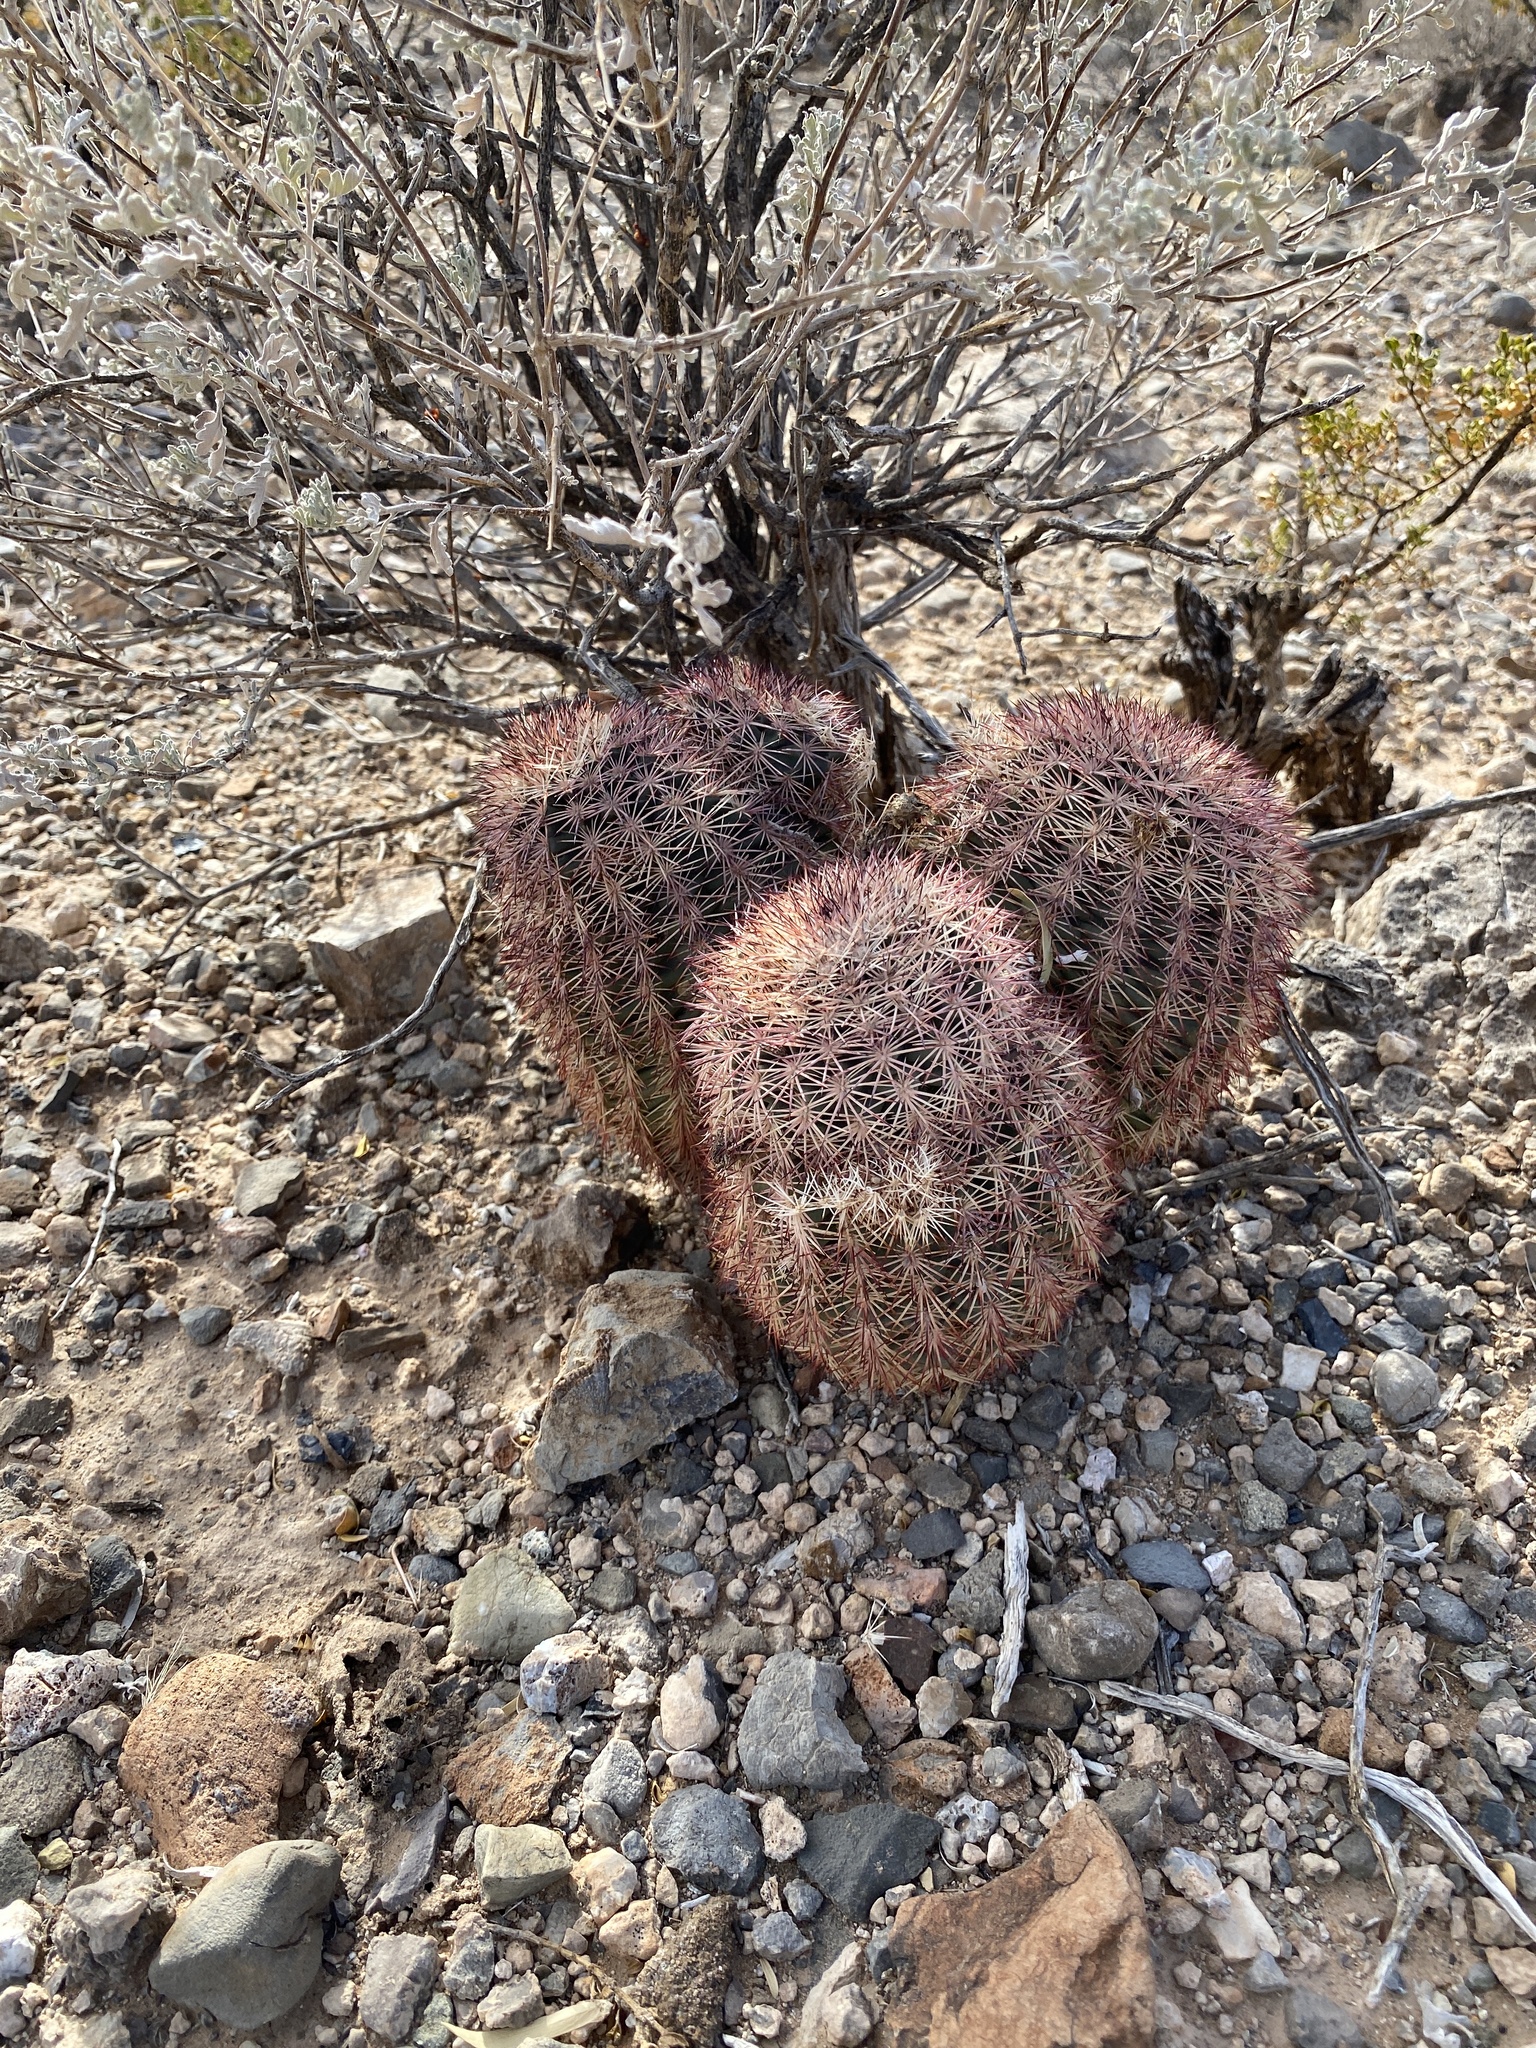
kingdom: Plantae
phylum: Tracheophyta
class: Magnoliopsida
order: Caryophyllales
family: Cactaceae
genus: Echinocereus
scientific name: Echinocereus dasyacanthus
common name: Spiny hedgehog cactus
